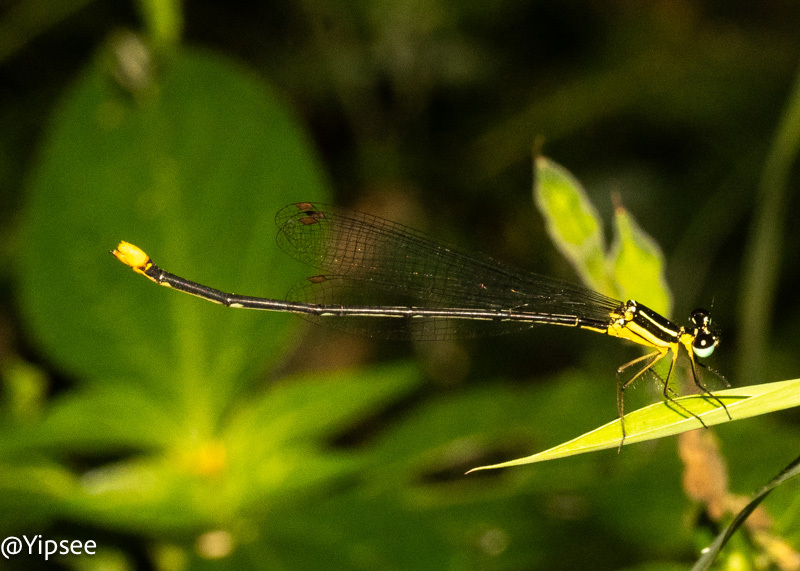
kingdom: Animalia
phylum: Arthropoda
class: Insecta
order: Odonata
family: Platycnemididae
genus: Coeliccia
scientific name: Coeliccia poungyi
